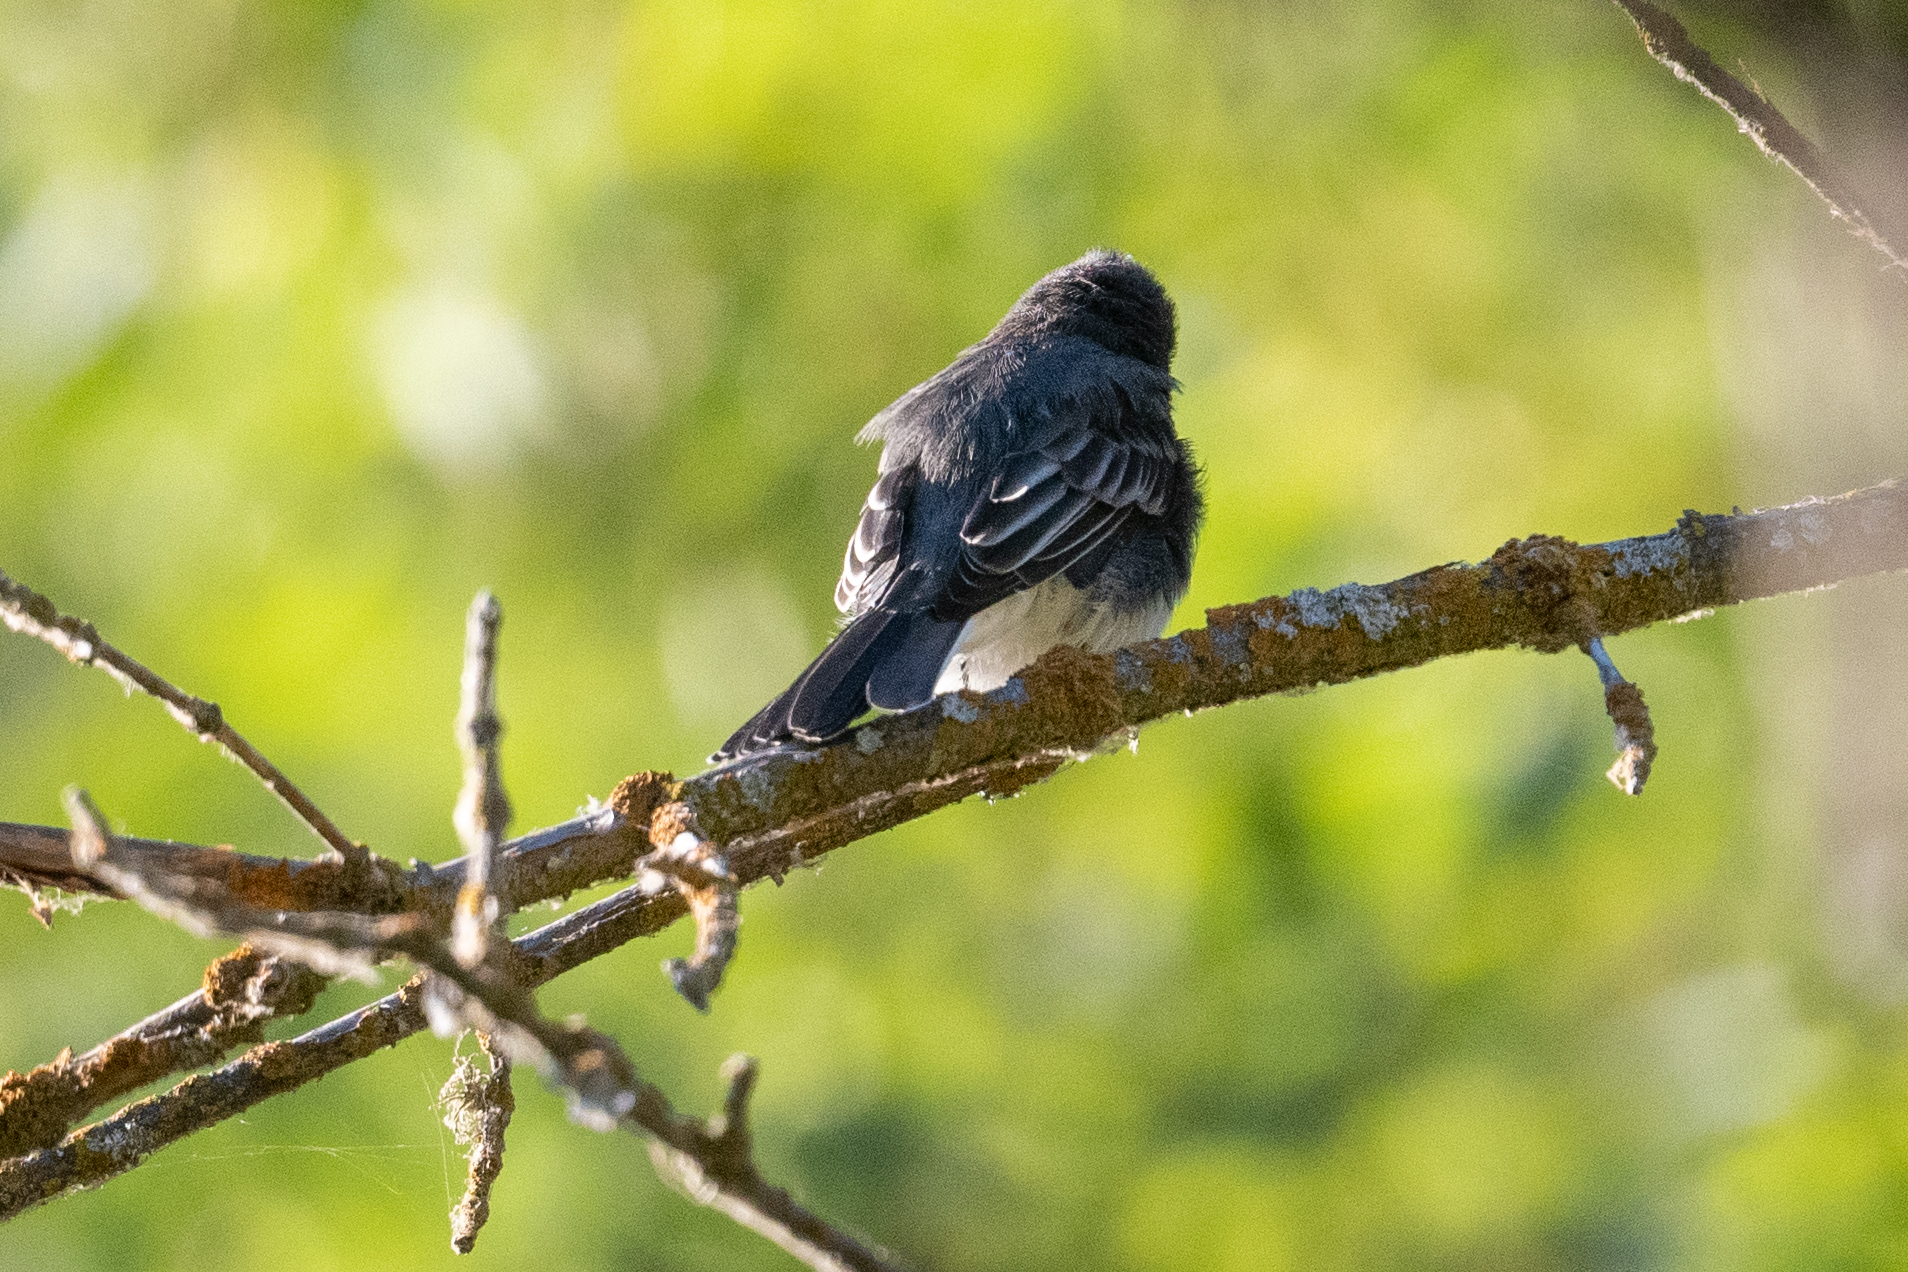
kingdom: Animalia
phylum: Chordata
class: Aves
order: Passeriformes
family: Tyrannidae
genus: Sayornis
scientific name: Sayornis nigricans
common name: Black phoebe
